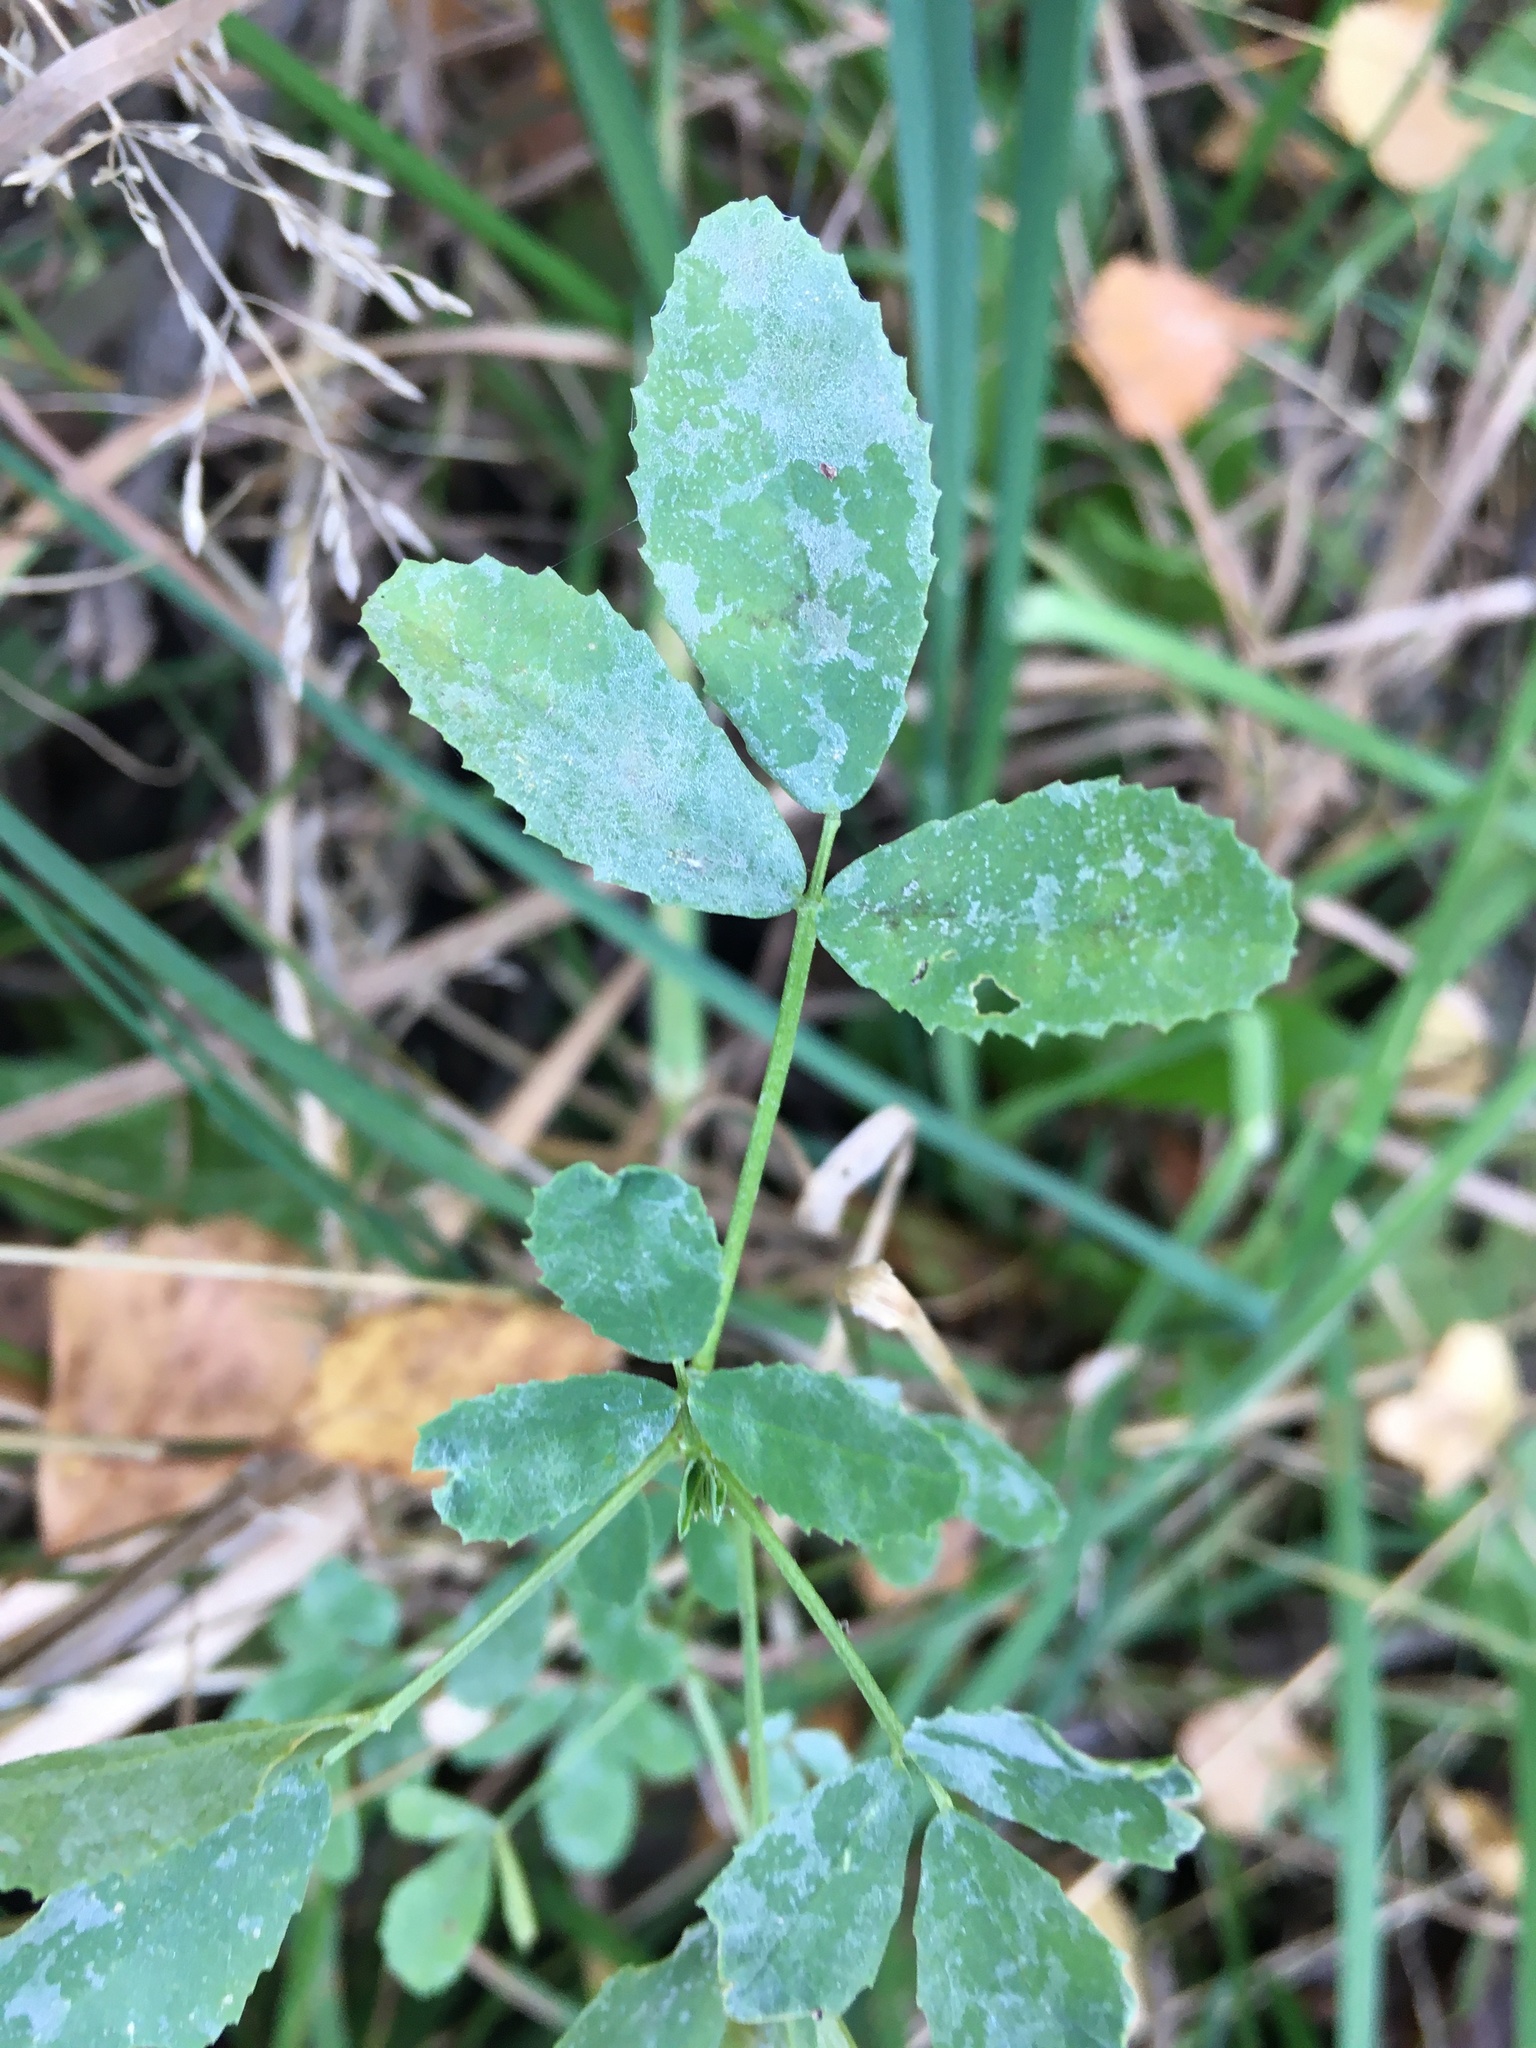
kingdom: Plantae
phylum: Tracheophyta
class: Magnoliopsida
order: Fabales
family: Fabaceae
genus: Melilotus
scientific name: Melilotus
